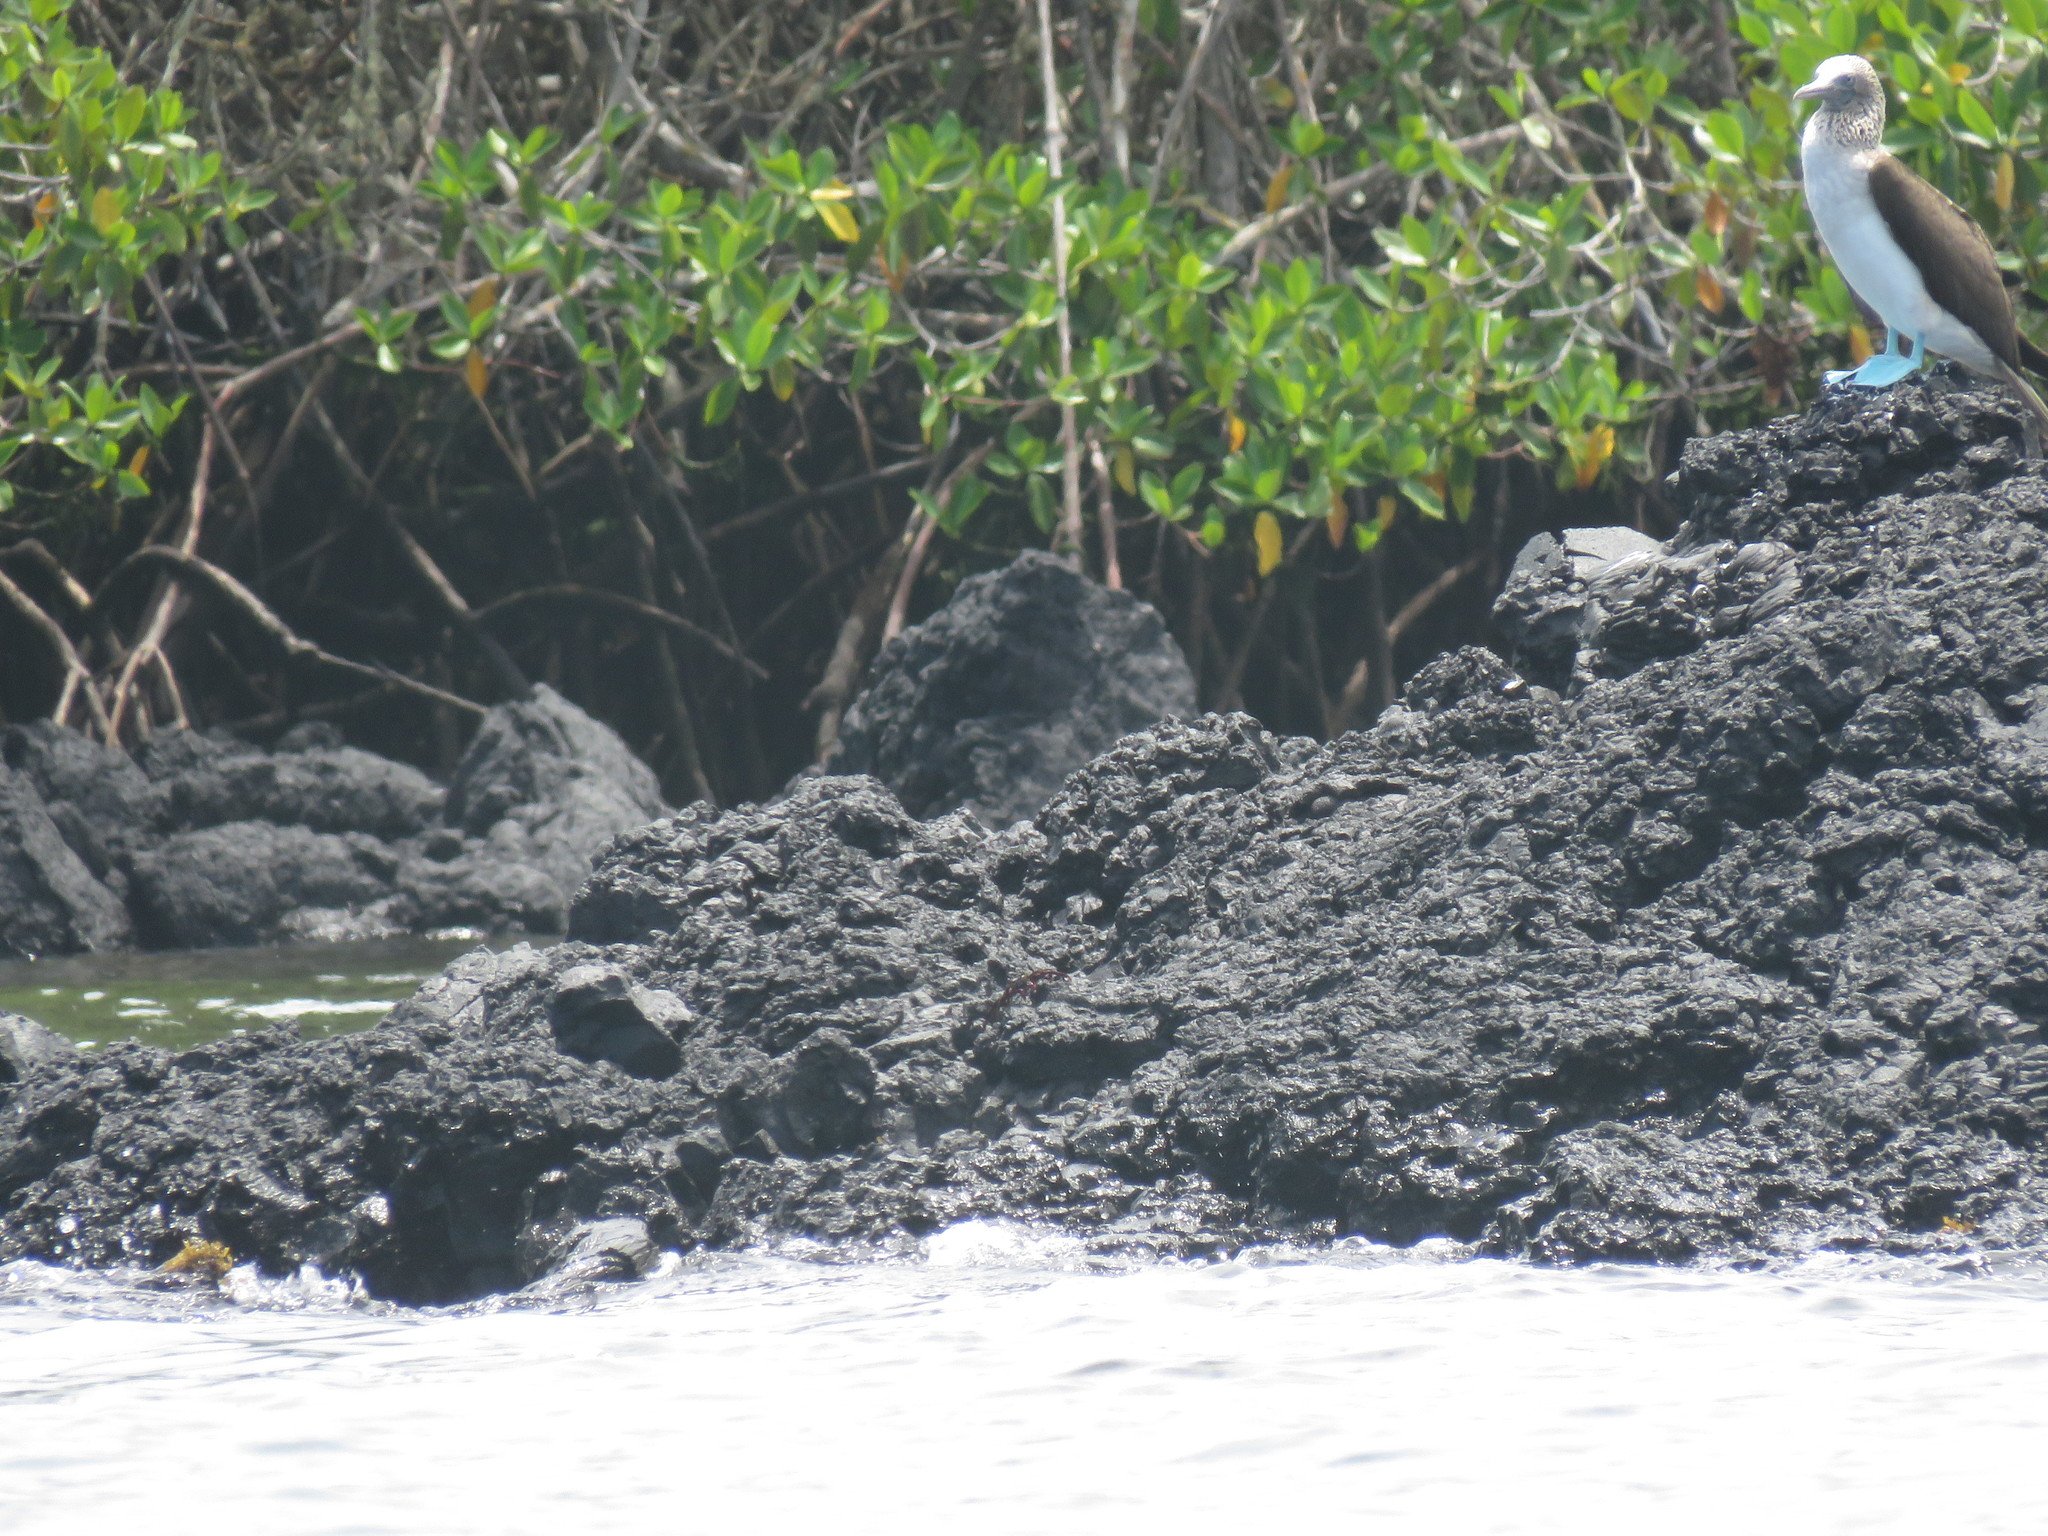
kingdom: Animalia
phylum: Chordata
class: Aves
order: Suliformes
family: Sulidae
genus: Sula
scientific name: Sula nebouxii
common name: Blue-footed booby
